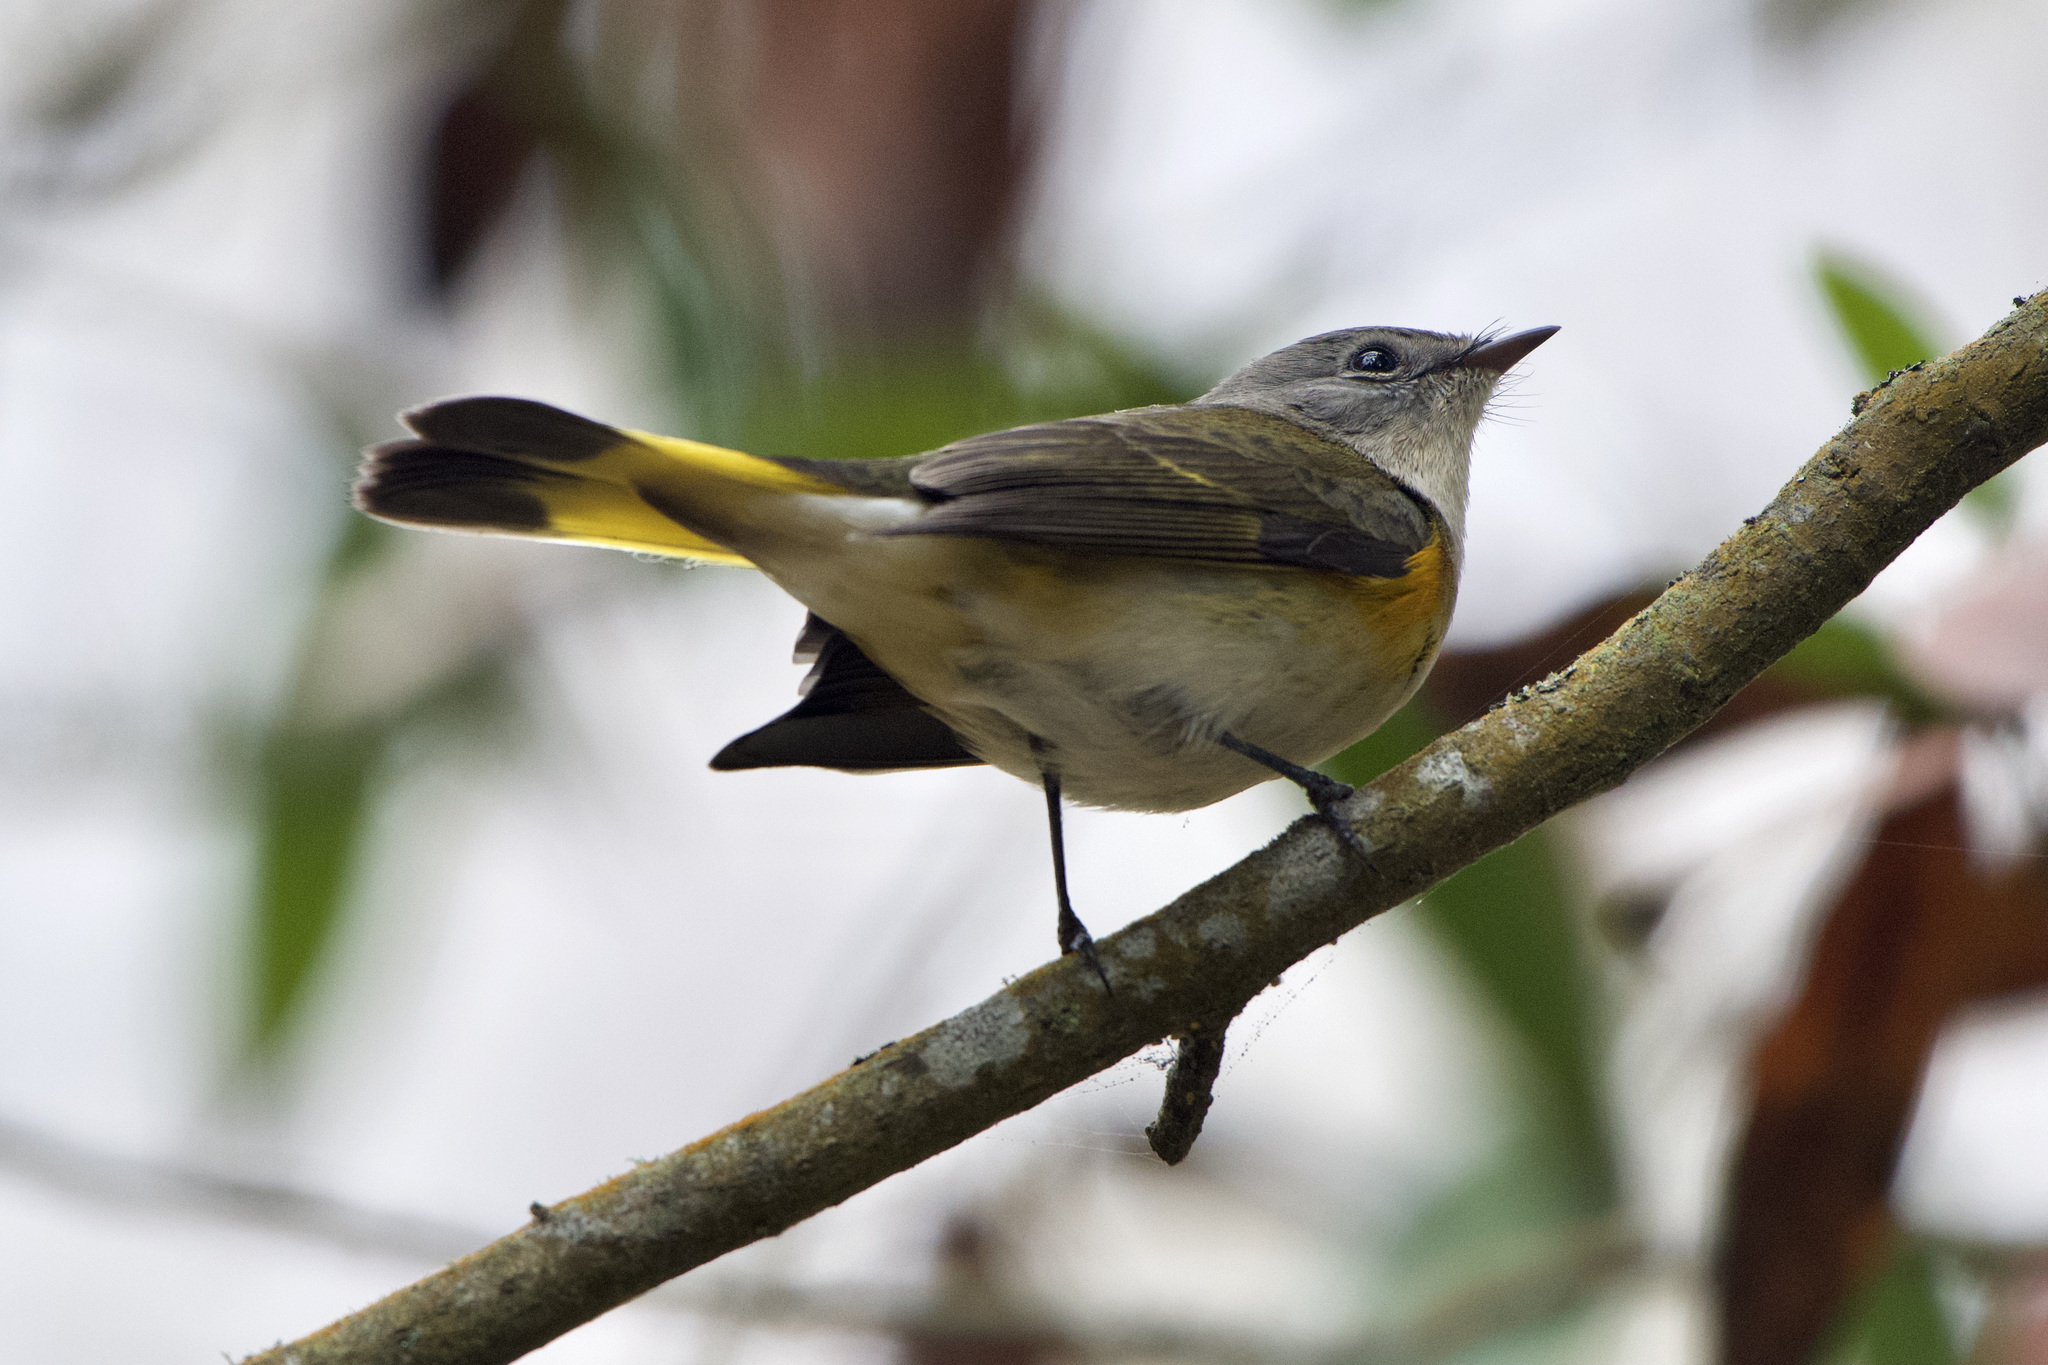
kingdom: Animalia
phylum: Chordata
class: Aves
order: Passeriformes
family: Parulidae
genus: Setophaga
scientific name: Setophaga ruticilla
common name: American redstart
